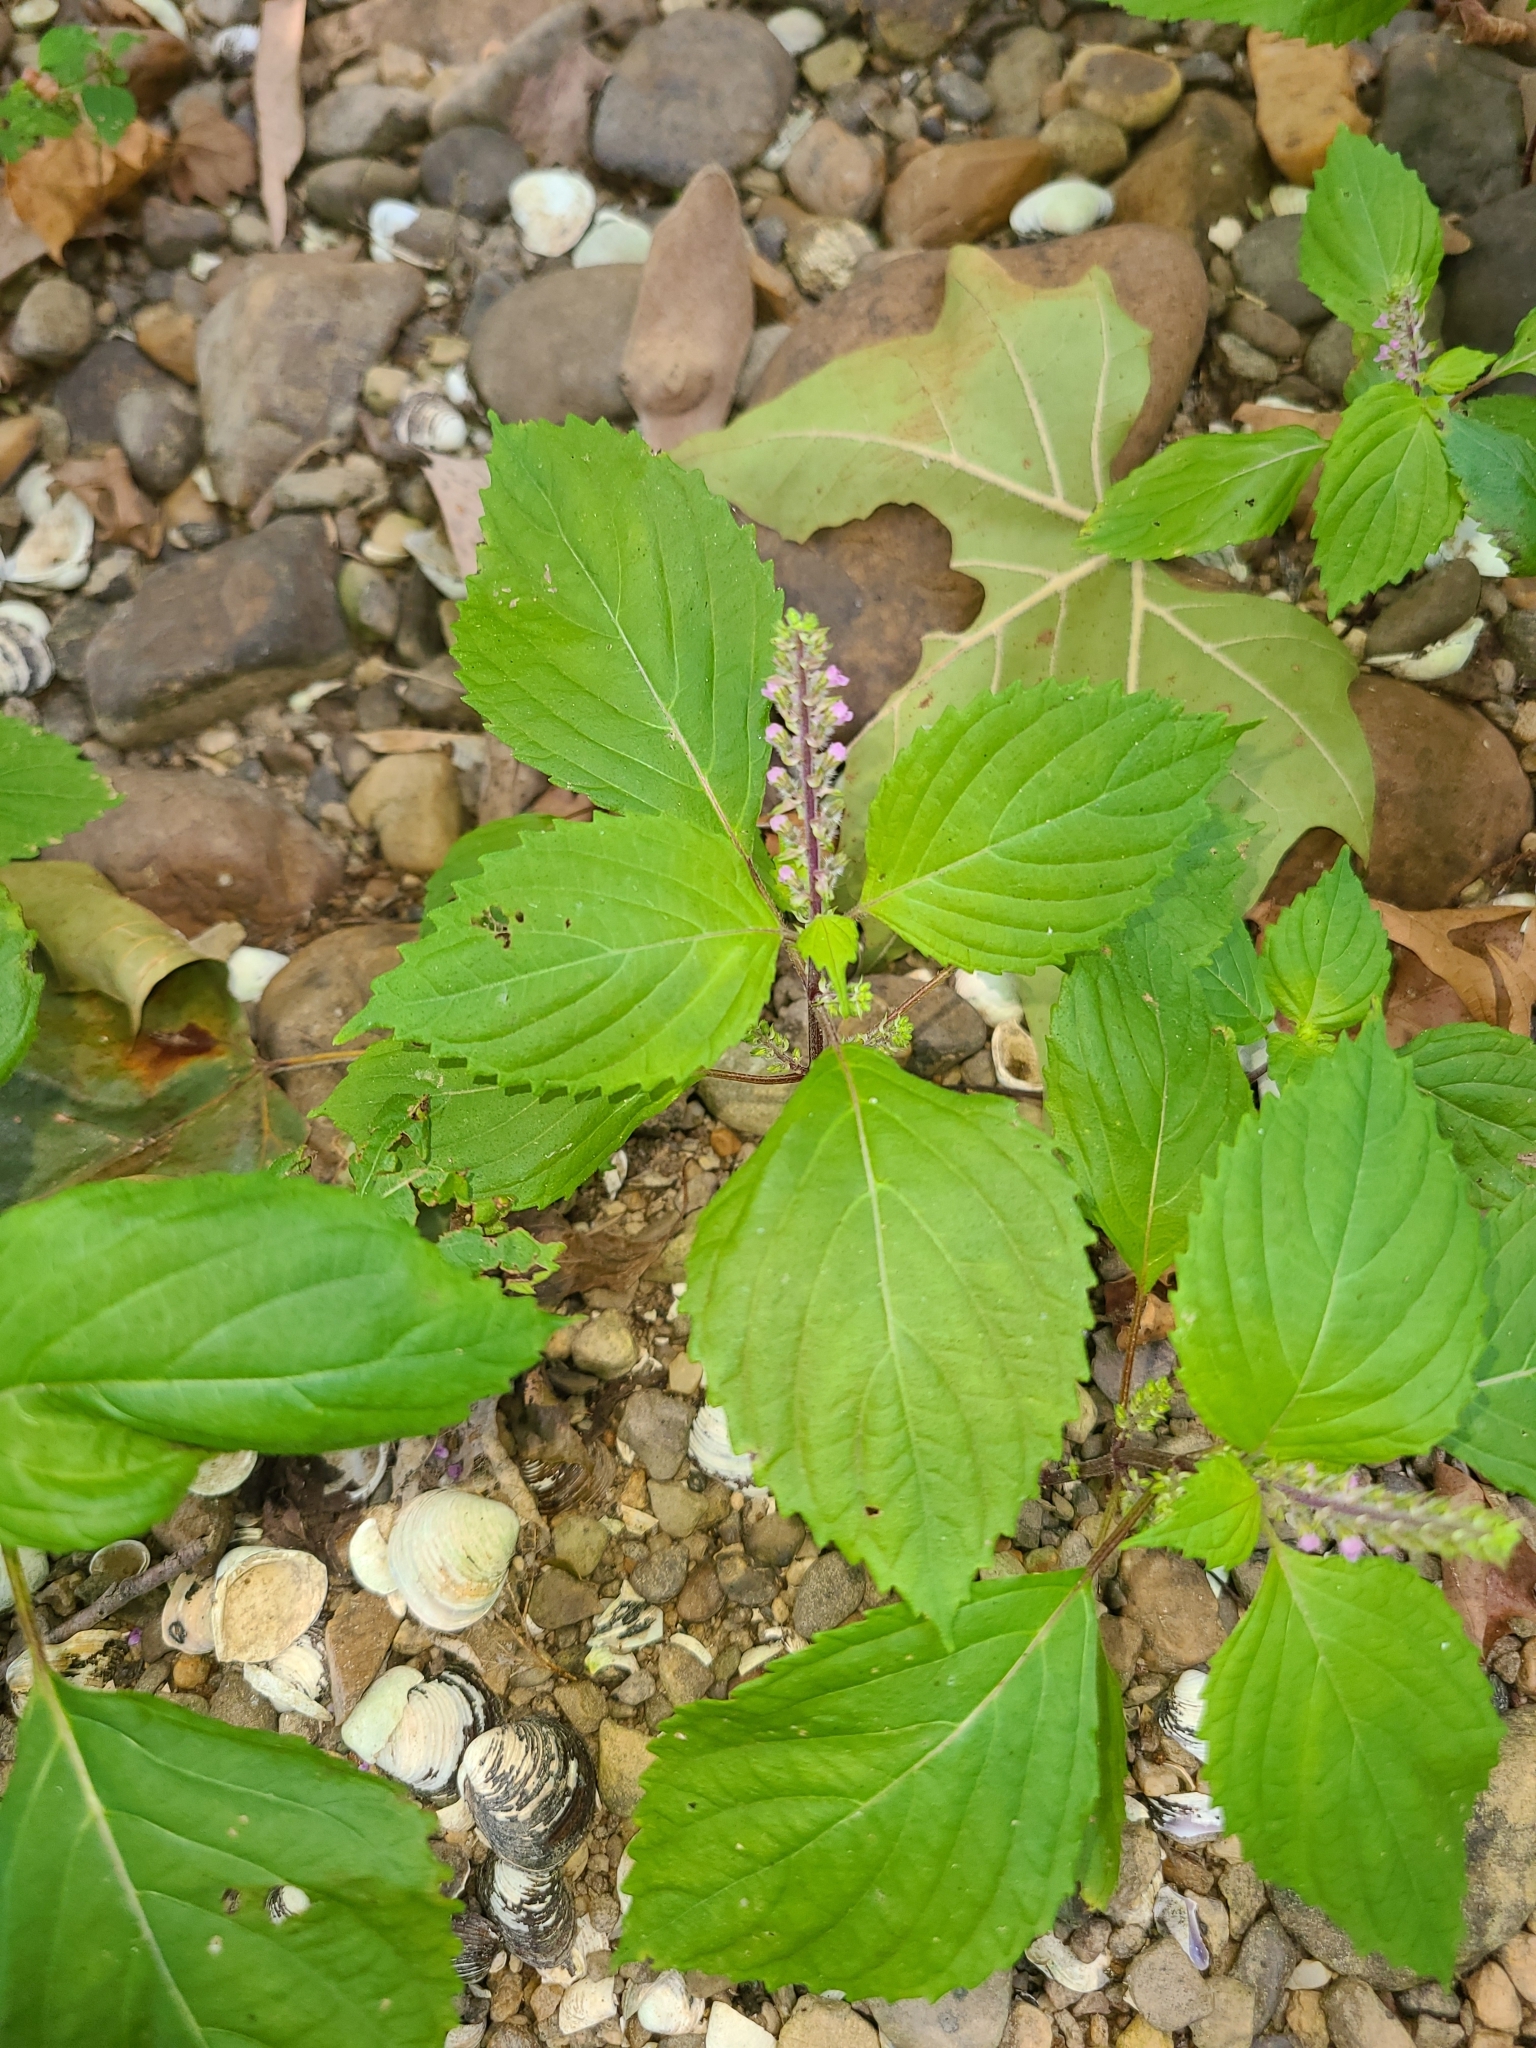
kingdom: Plantae
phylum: Tracheophyta
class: Magnoliopsida
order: Lamiales
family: Lamiaceae
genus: Perilla
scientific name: Perilla frutescens
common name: Perilla
